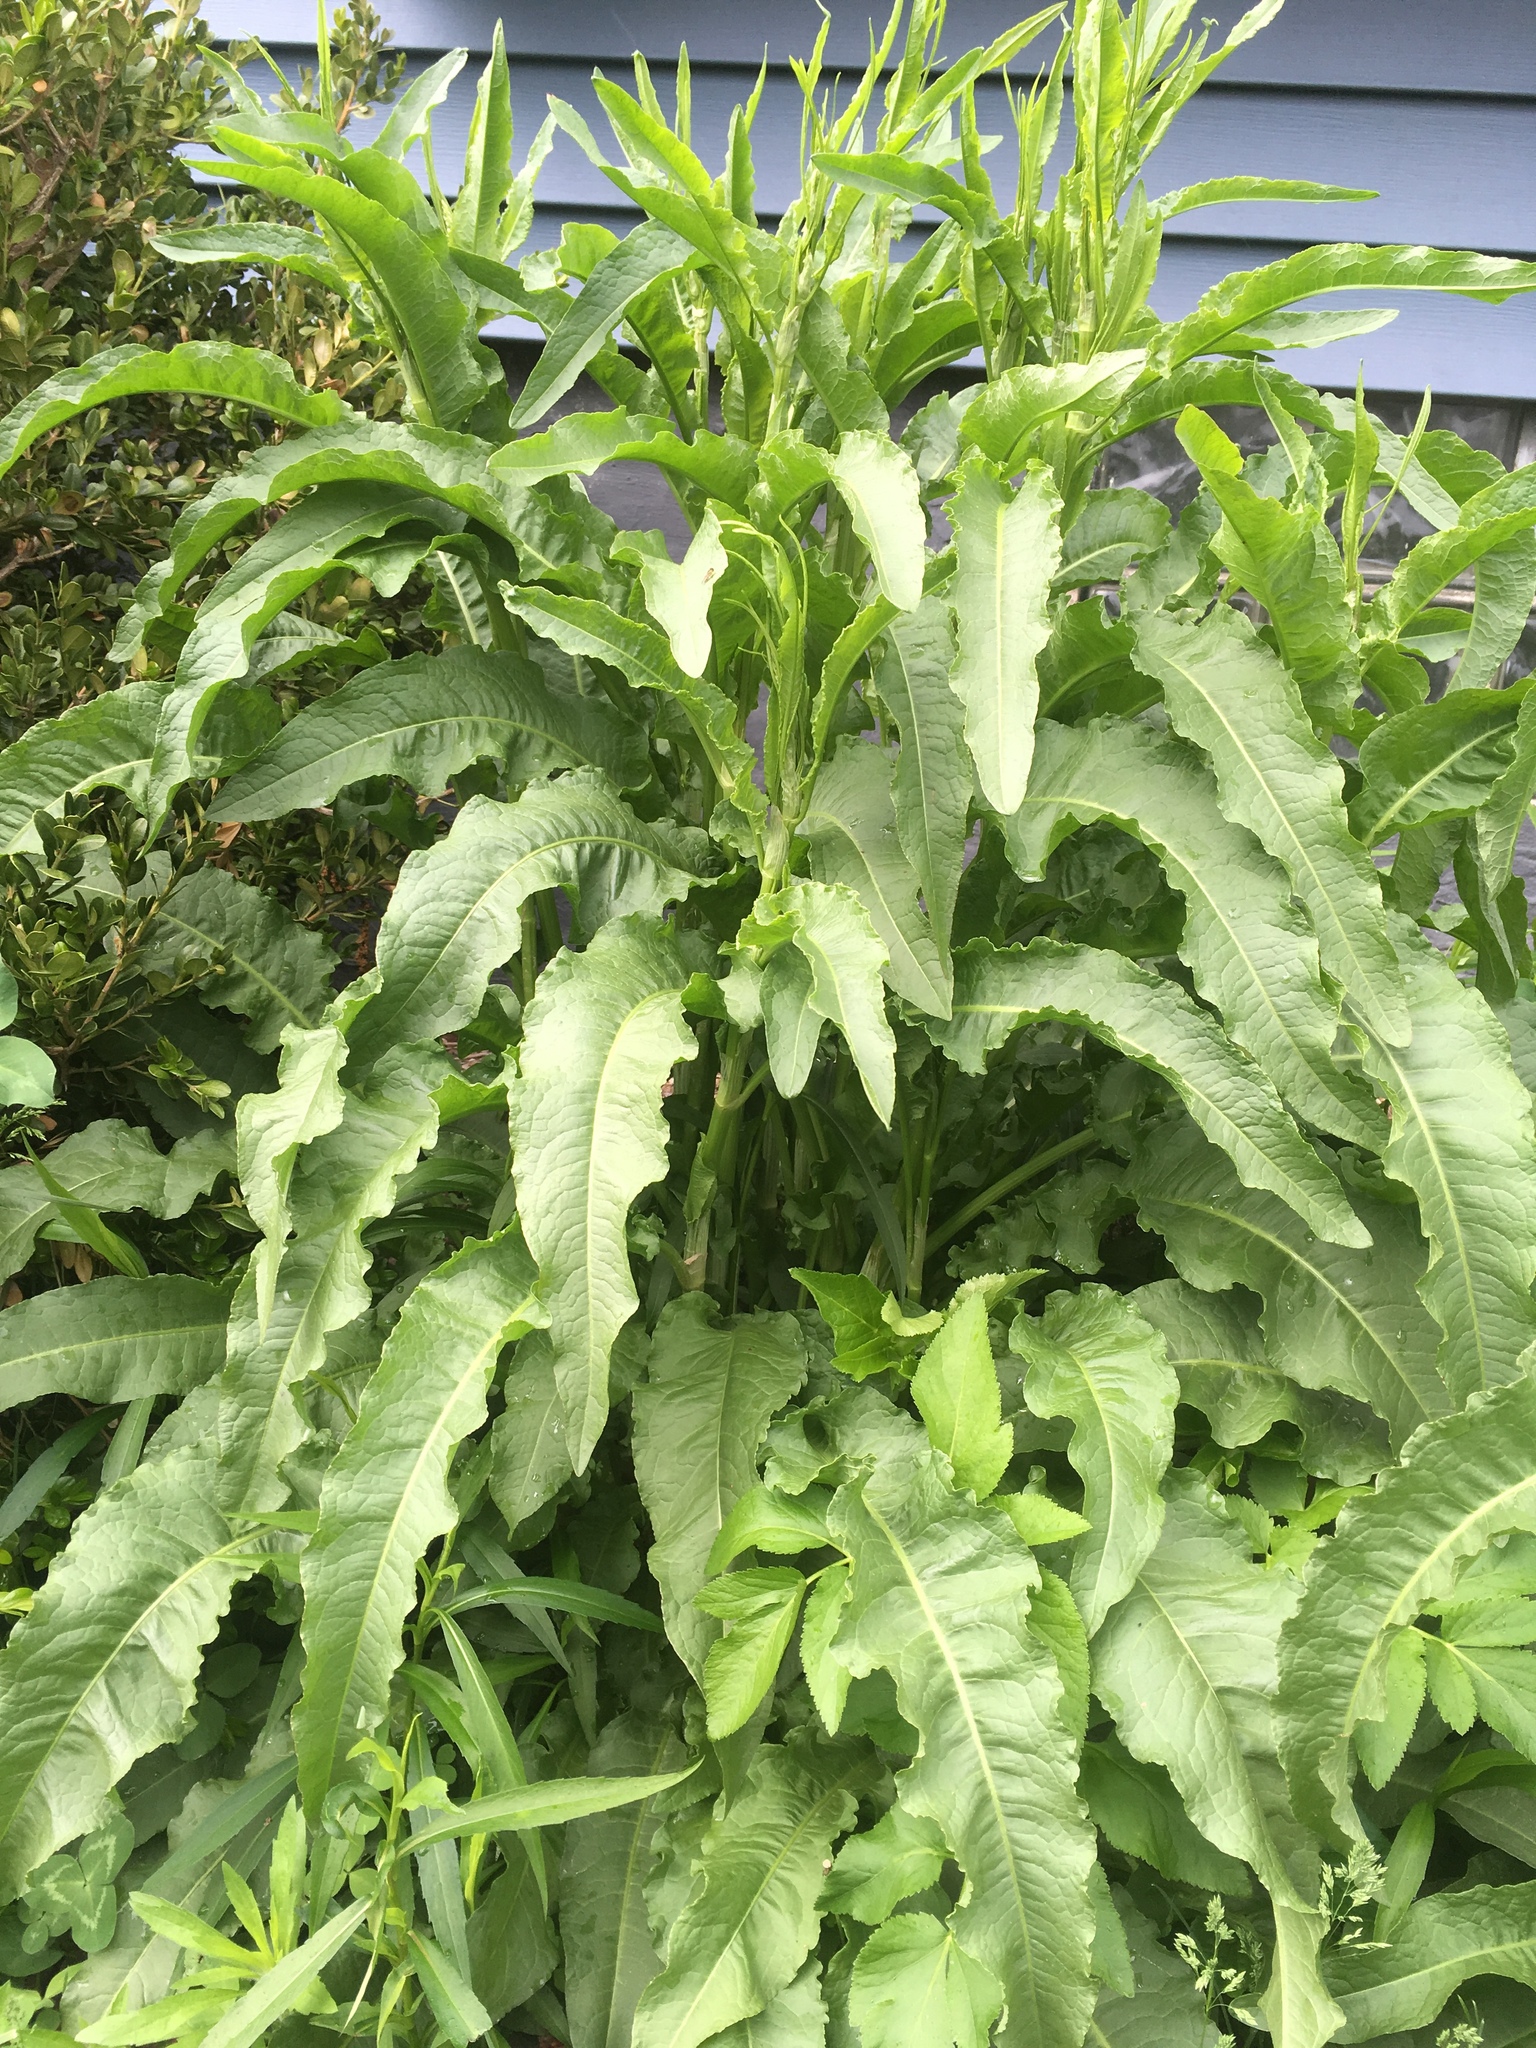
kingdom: Plantae
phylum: Tracheophyta
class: Magnoliopsida
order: Caryophyllales
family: Polygonaceae
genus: Rumex
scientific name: Rumex crispus
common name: Curled dock
